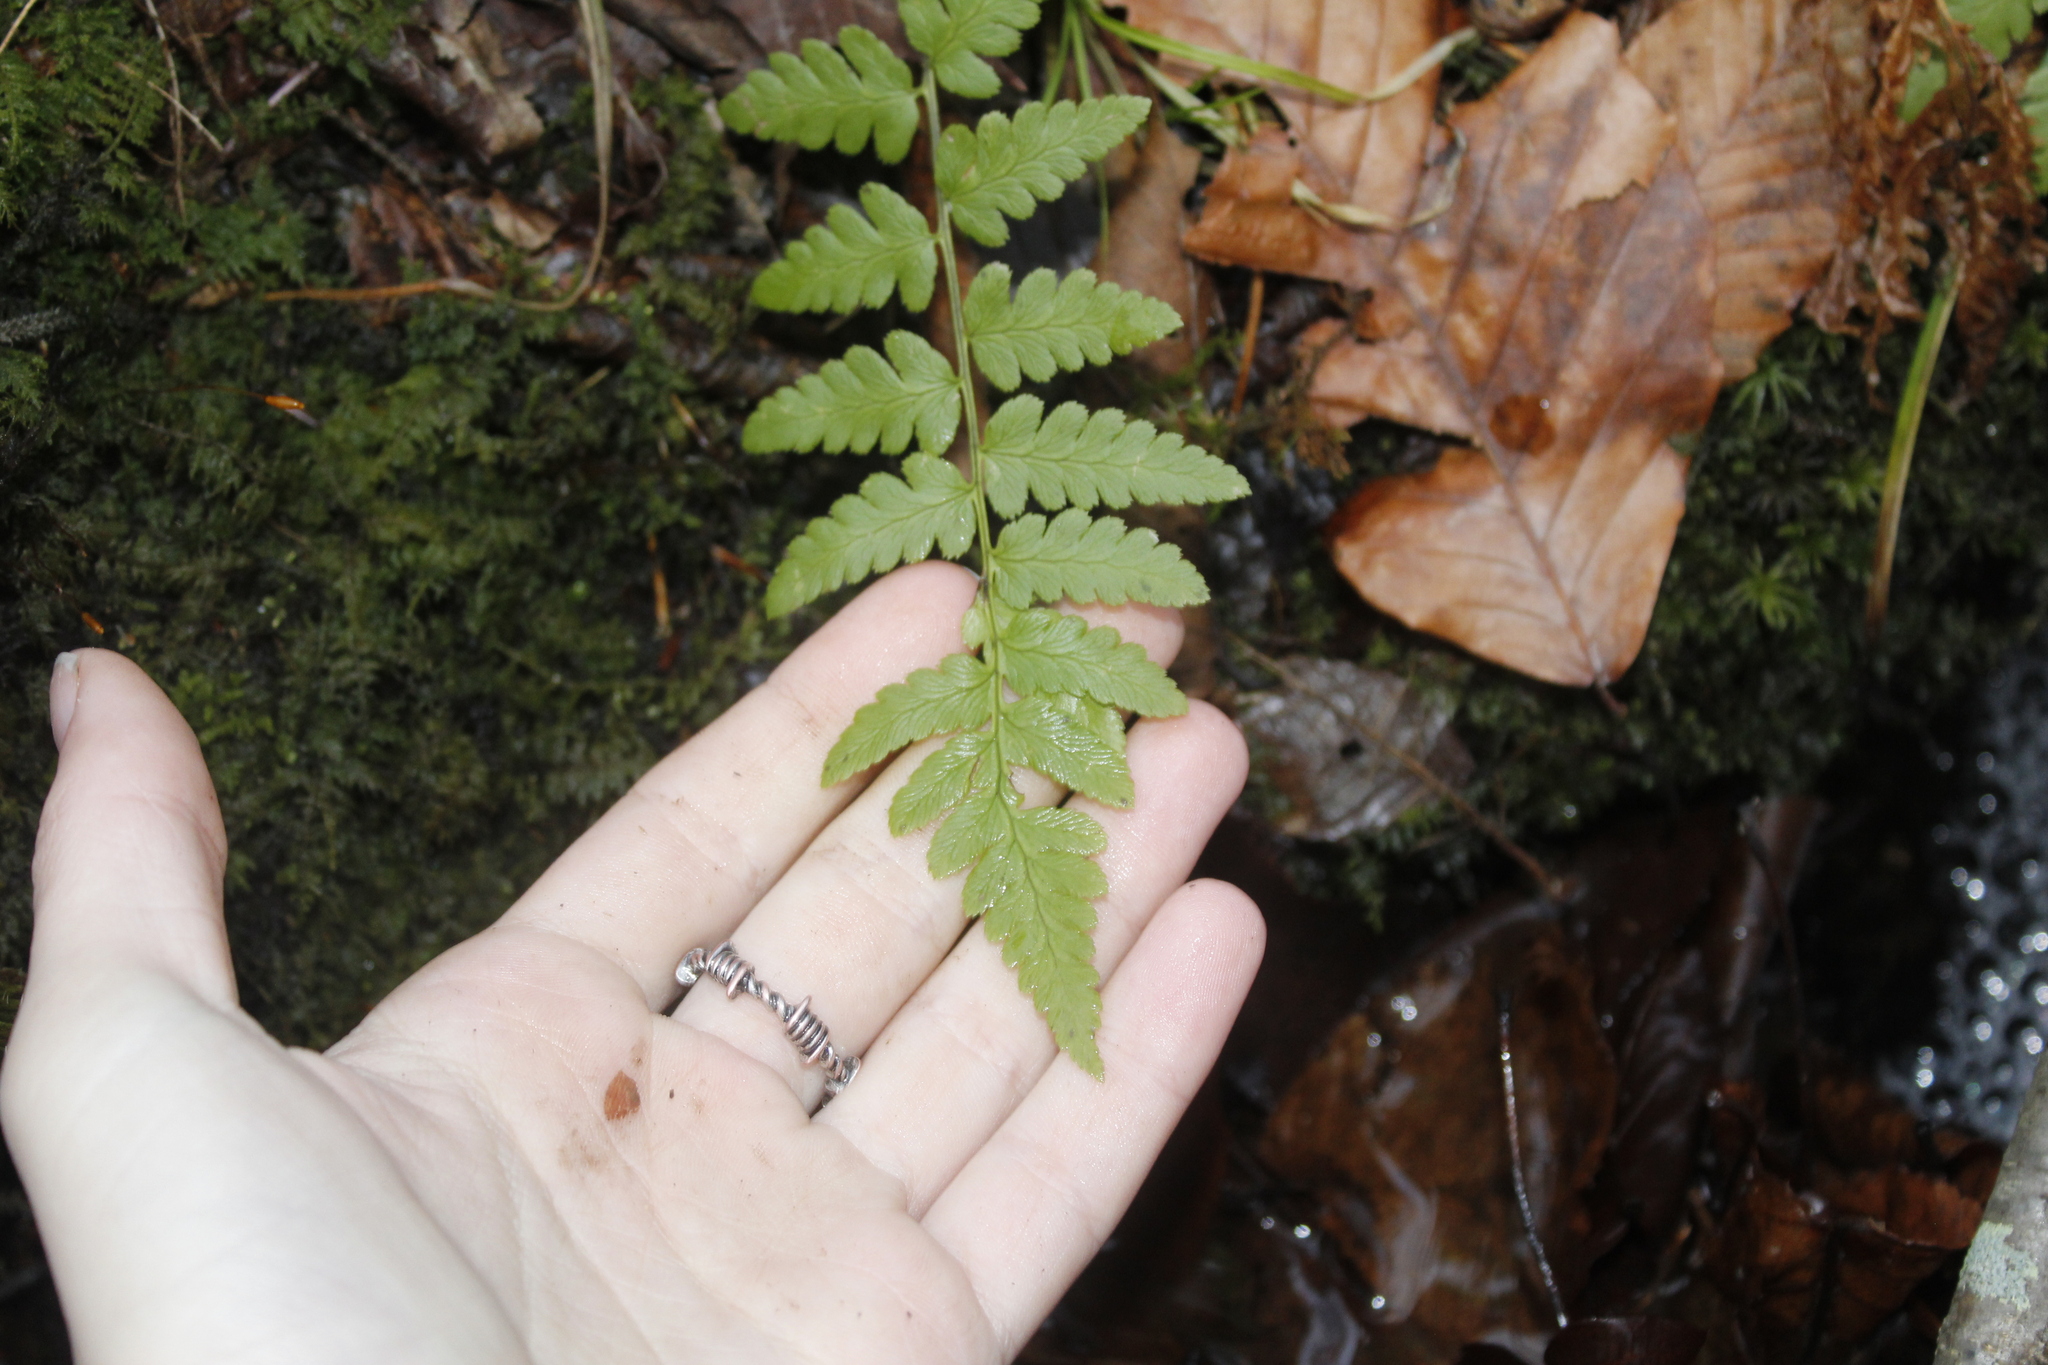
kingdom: Plantae
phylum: Tracheophyta
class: Polypodiopsida
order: Polypodiales
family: Dryopteridaceae
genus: Dryopteris
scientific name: Dryopteris cristata
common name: Crested wood fern
